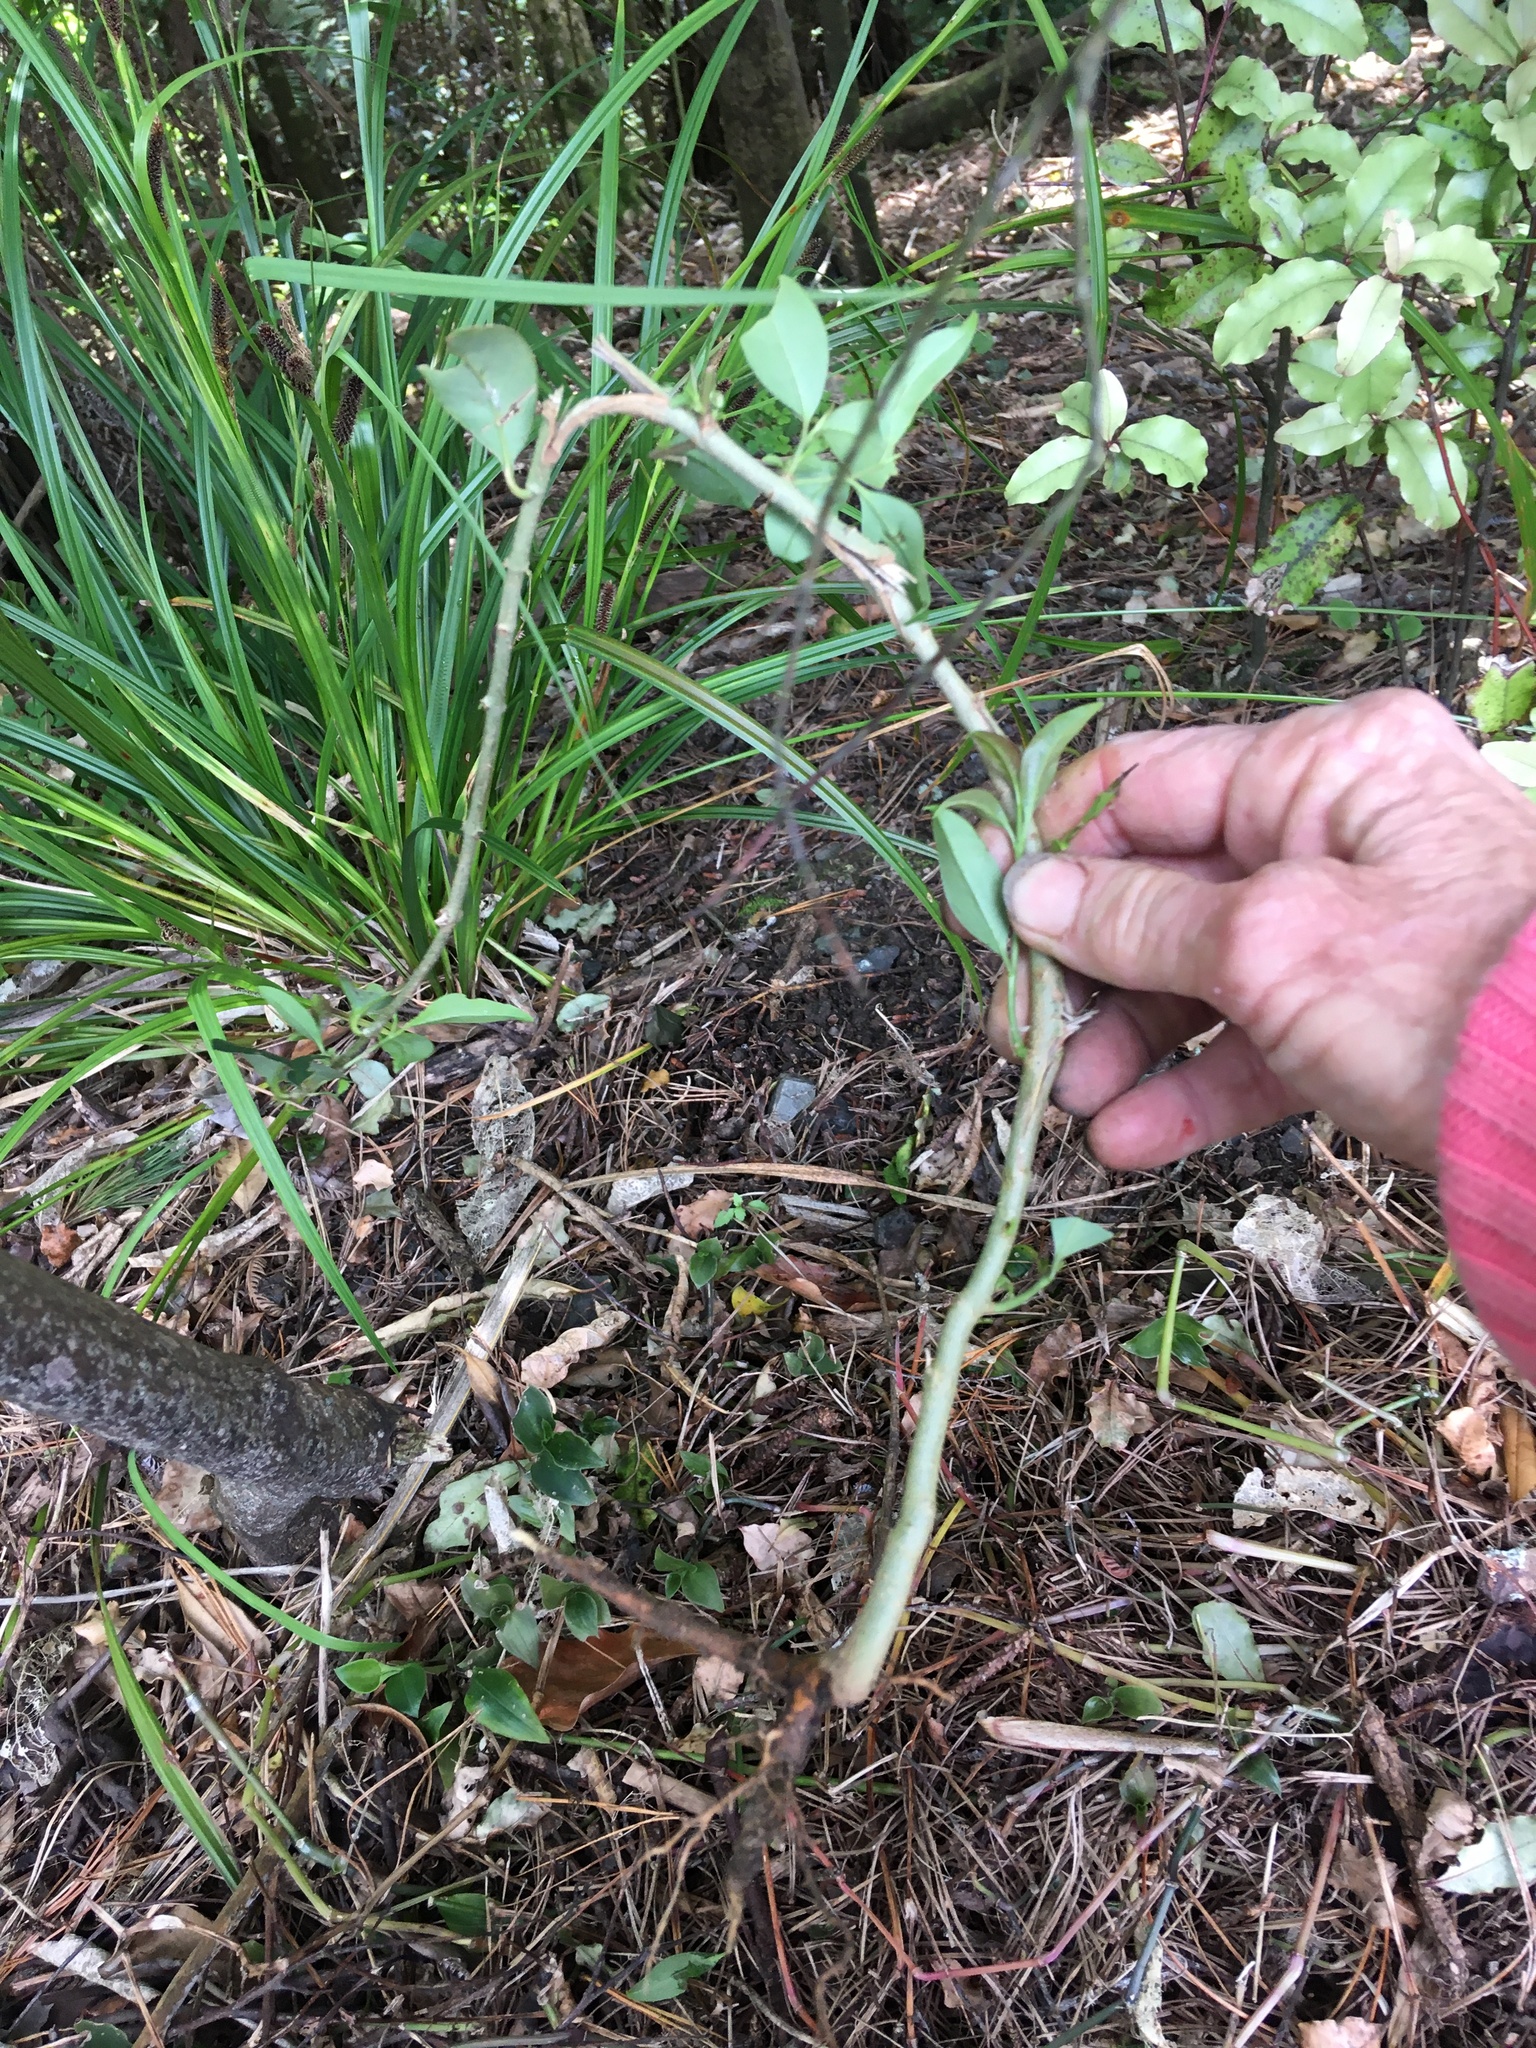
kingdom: Plantae
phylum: Tracheophyta
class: Magnoliopsida
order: Lamiales
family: Oleaceae
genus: Ligustrum
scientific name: Ligustrum lucidum
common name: Glossy privet
